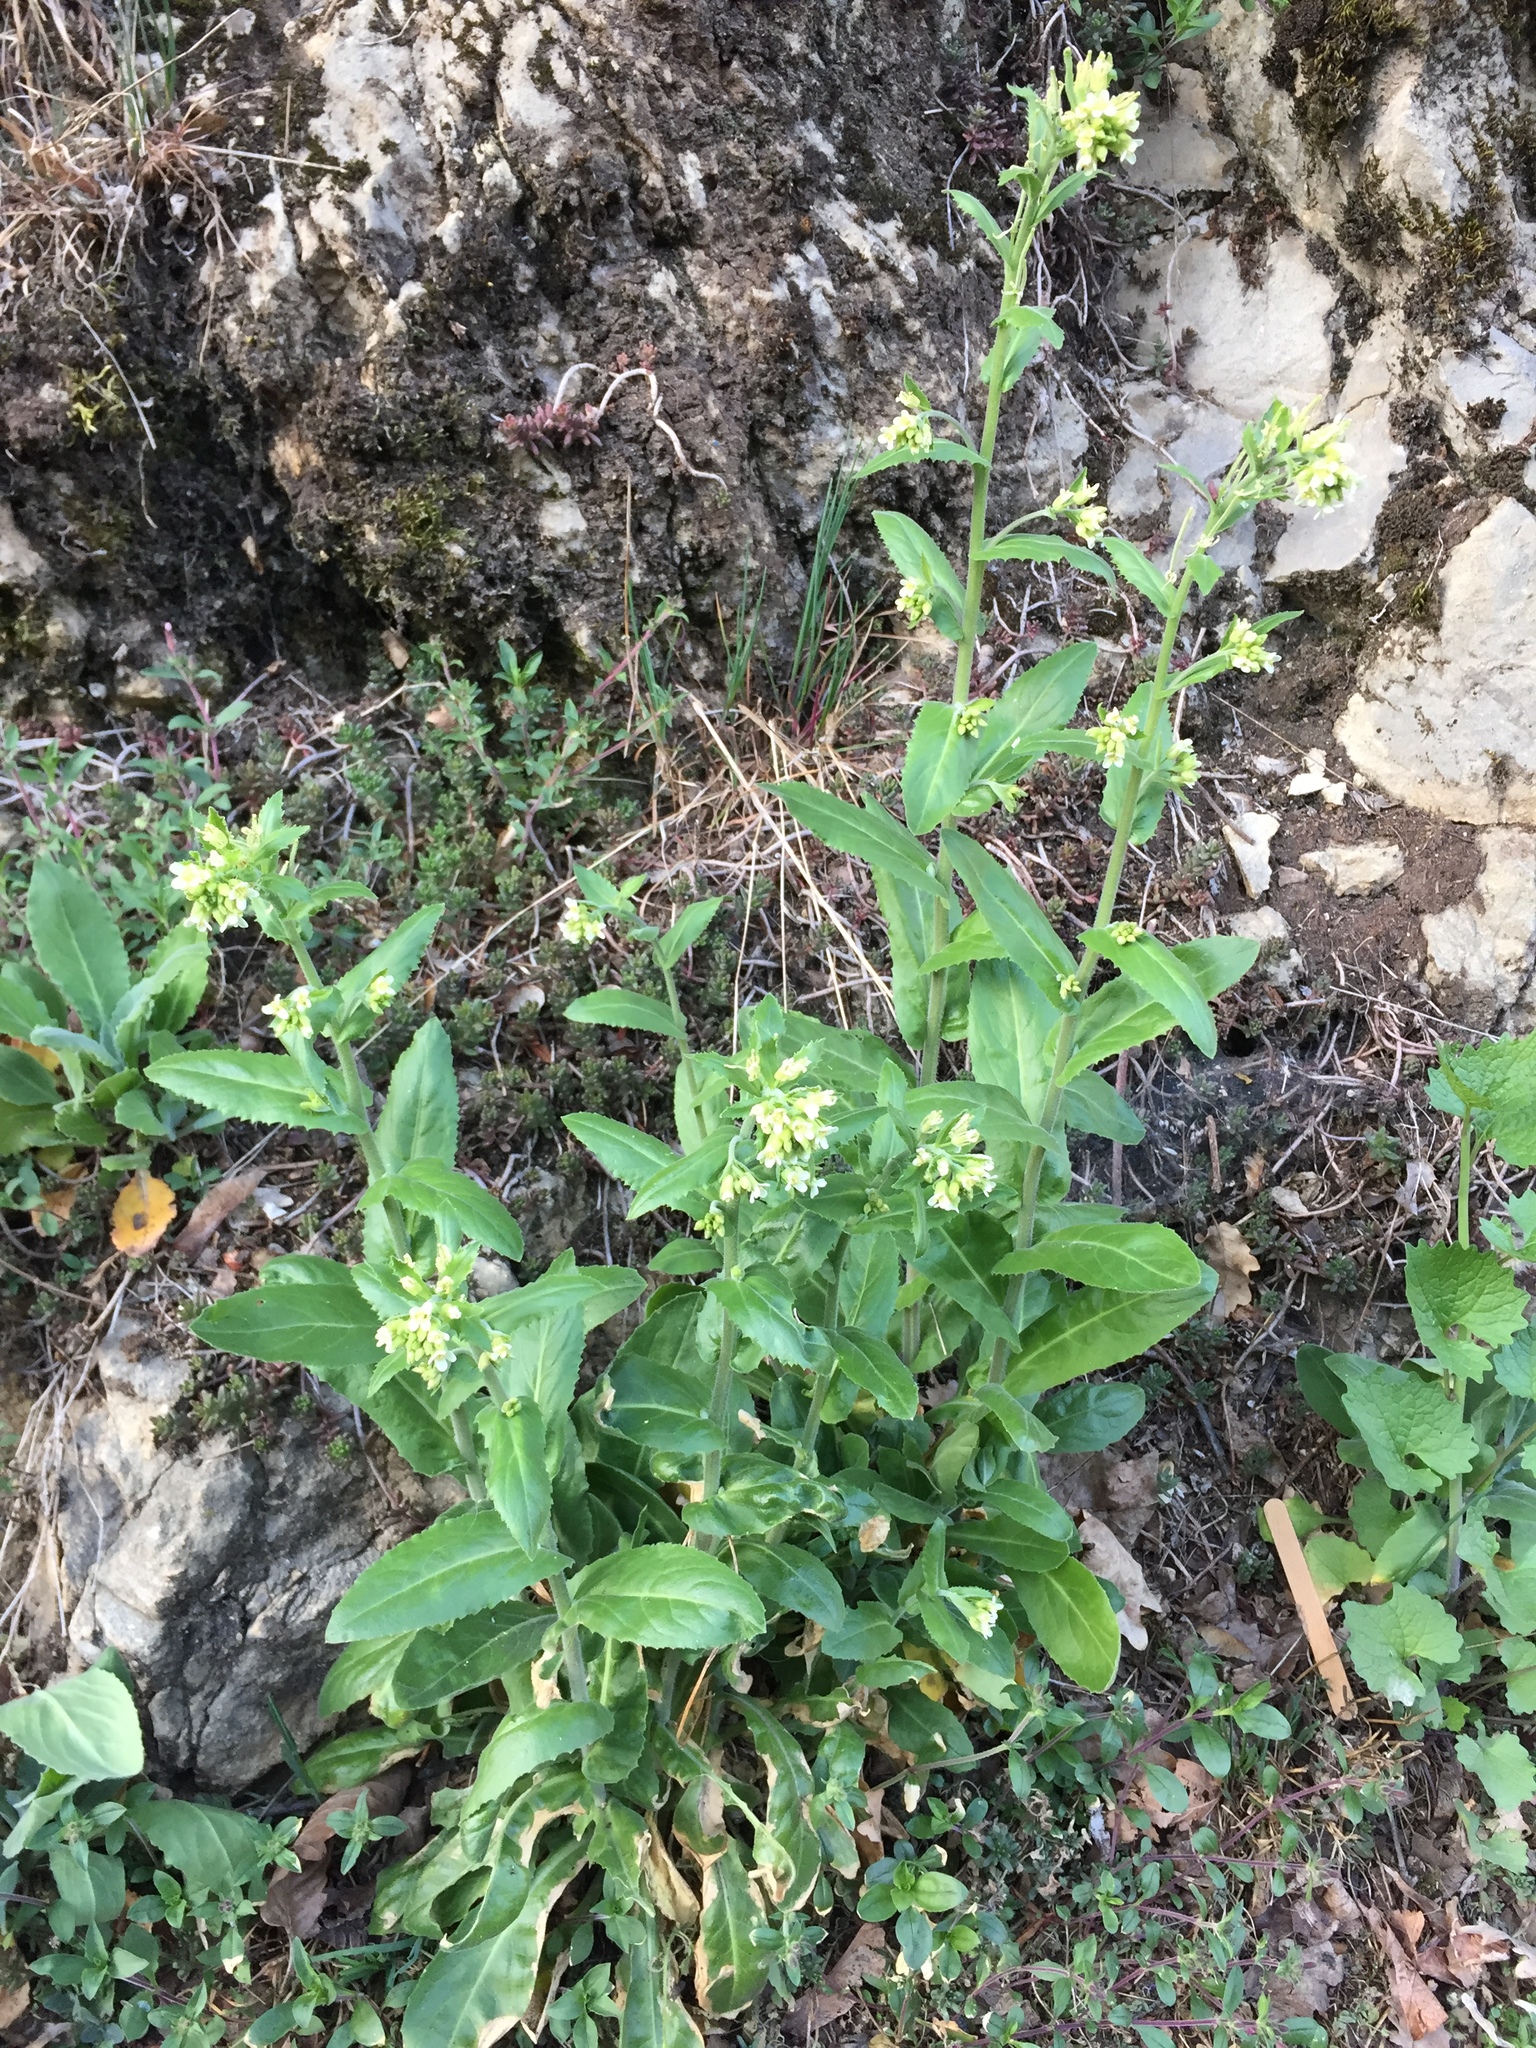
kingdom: Plantae
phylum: Tracheophyta
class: Magnoliopsida
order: Brassicales
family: Brassicaceae
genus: Pseudoturritis
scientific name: Pseudoturritis turrita
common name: Tower cress
